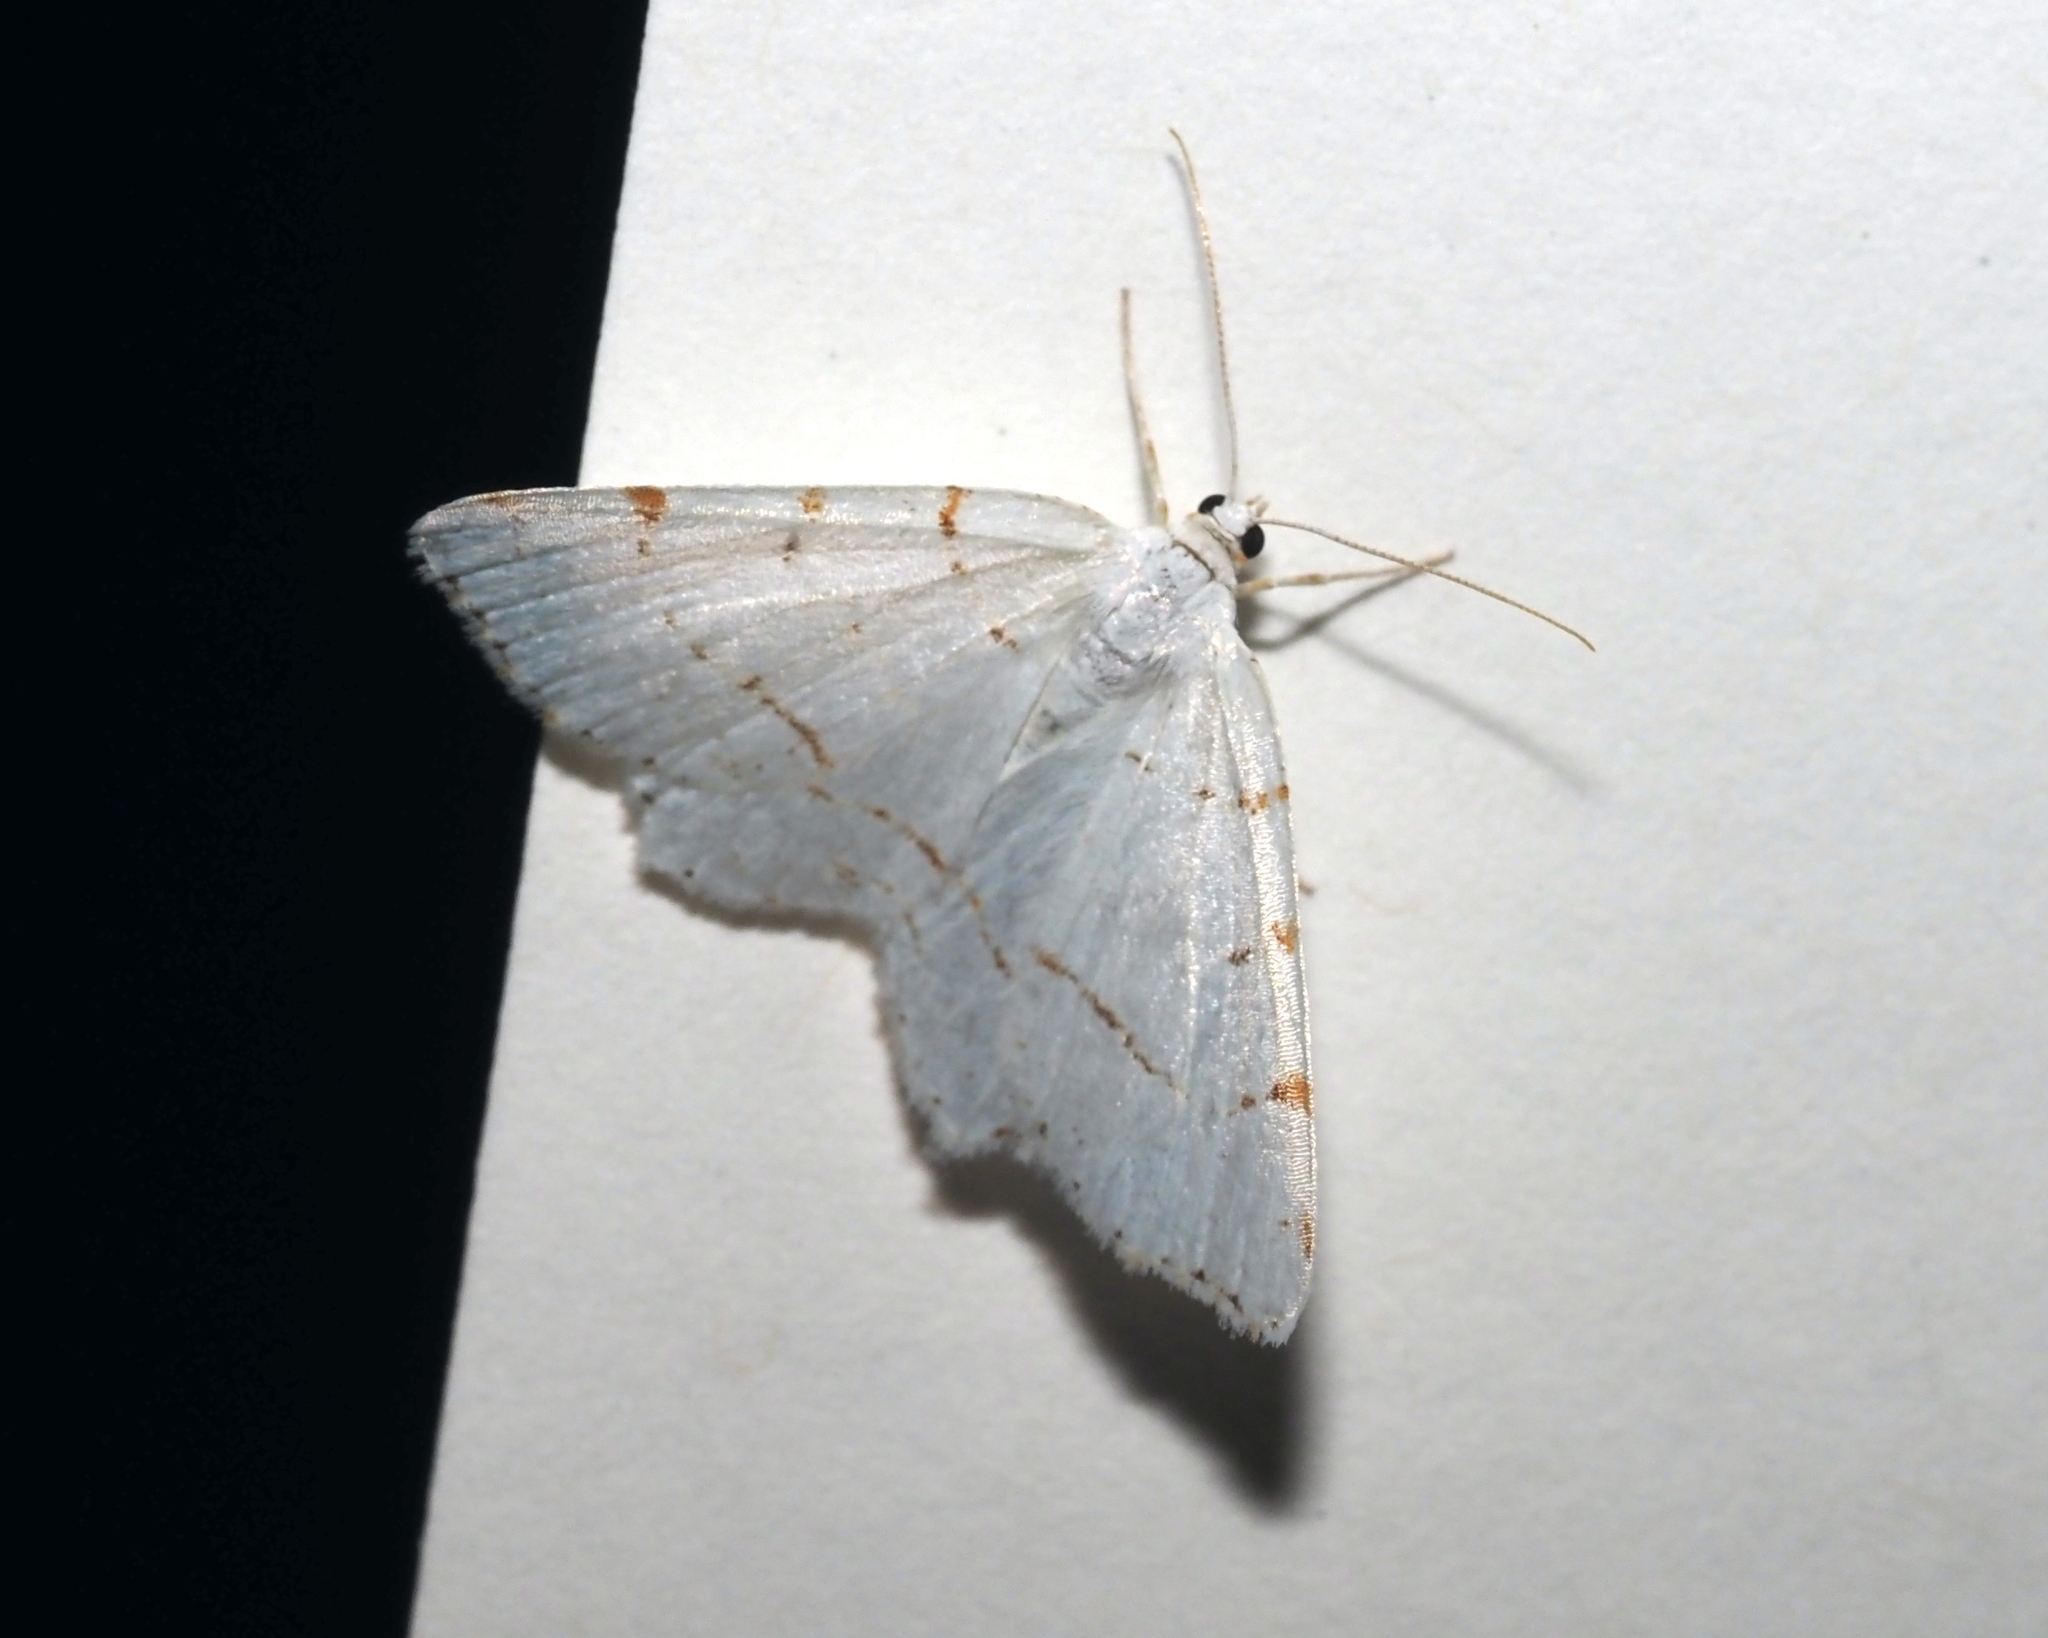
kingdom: Animalia
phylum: Arthropoda
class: Insecta
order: Lepidoptera
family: Geometridae
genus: Macaria
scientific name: Macaria pustularia
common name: Lesser maple spanworm moth
